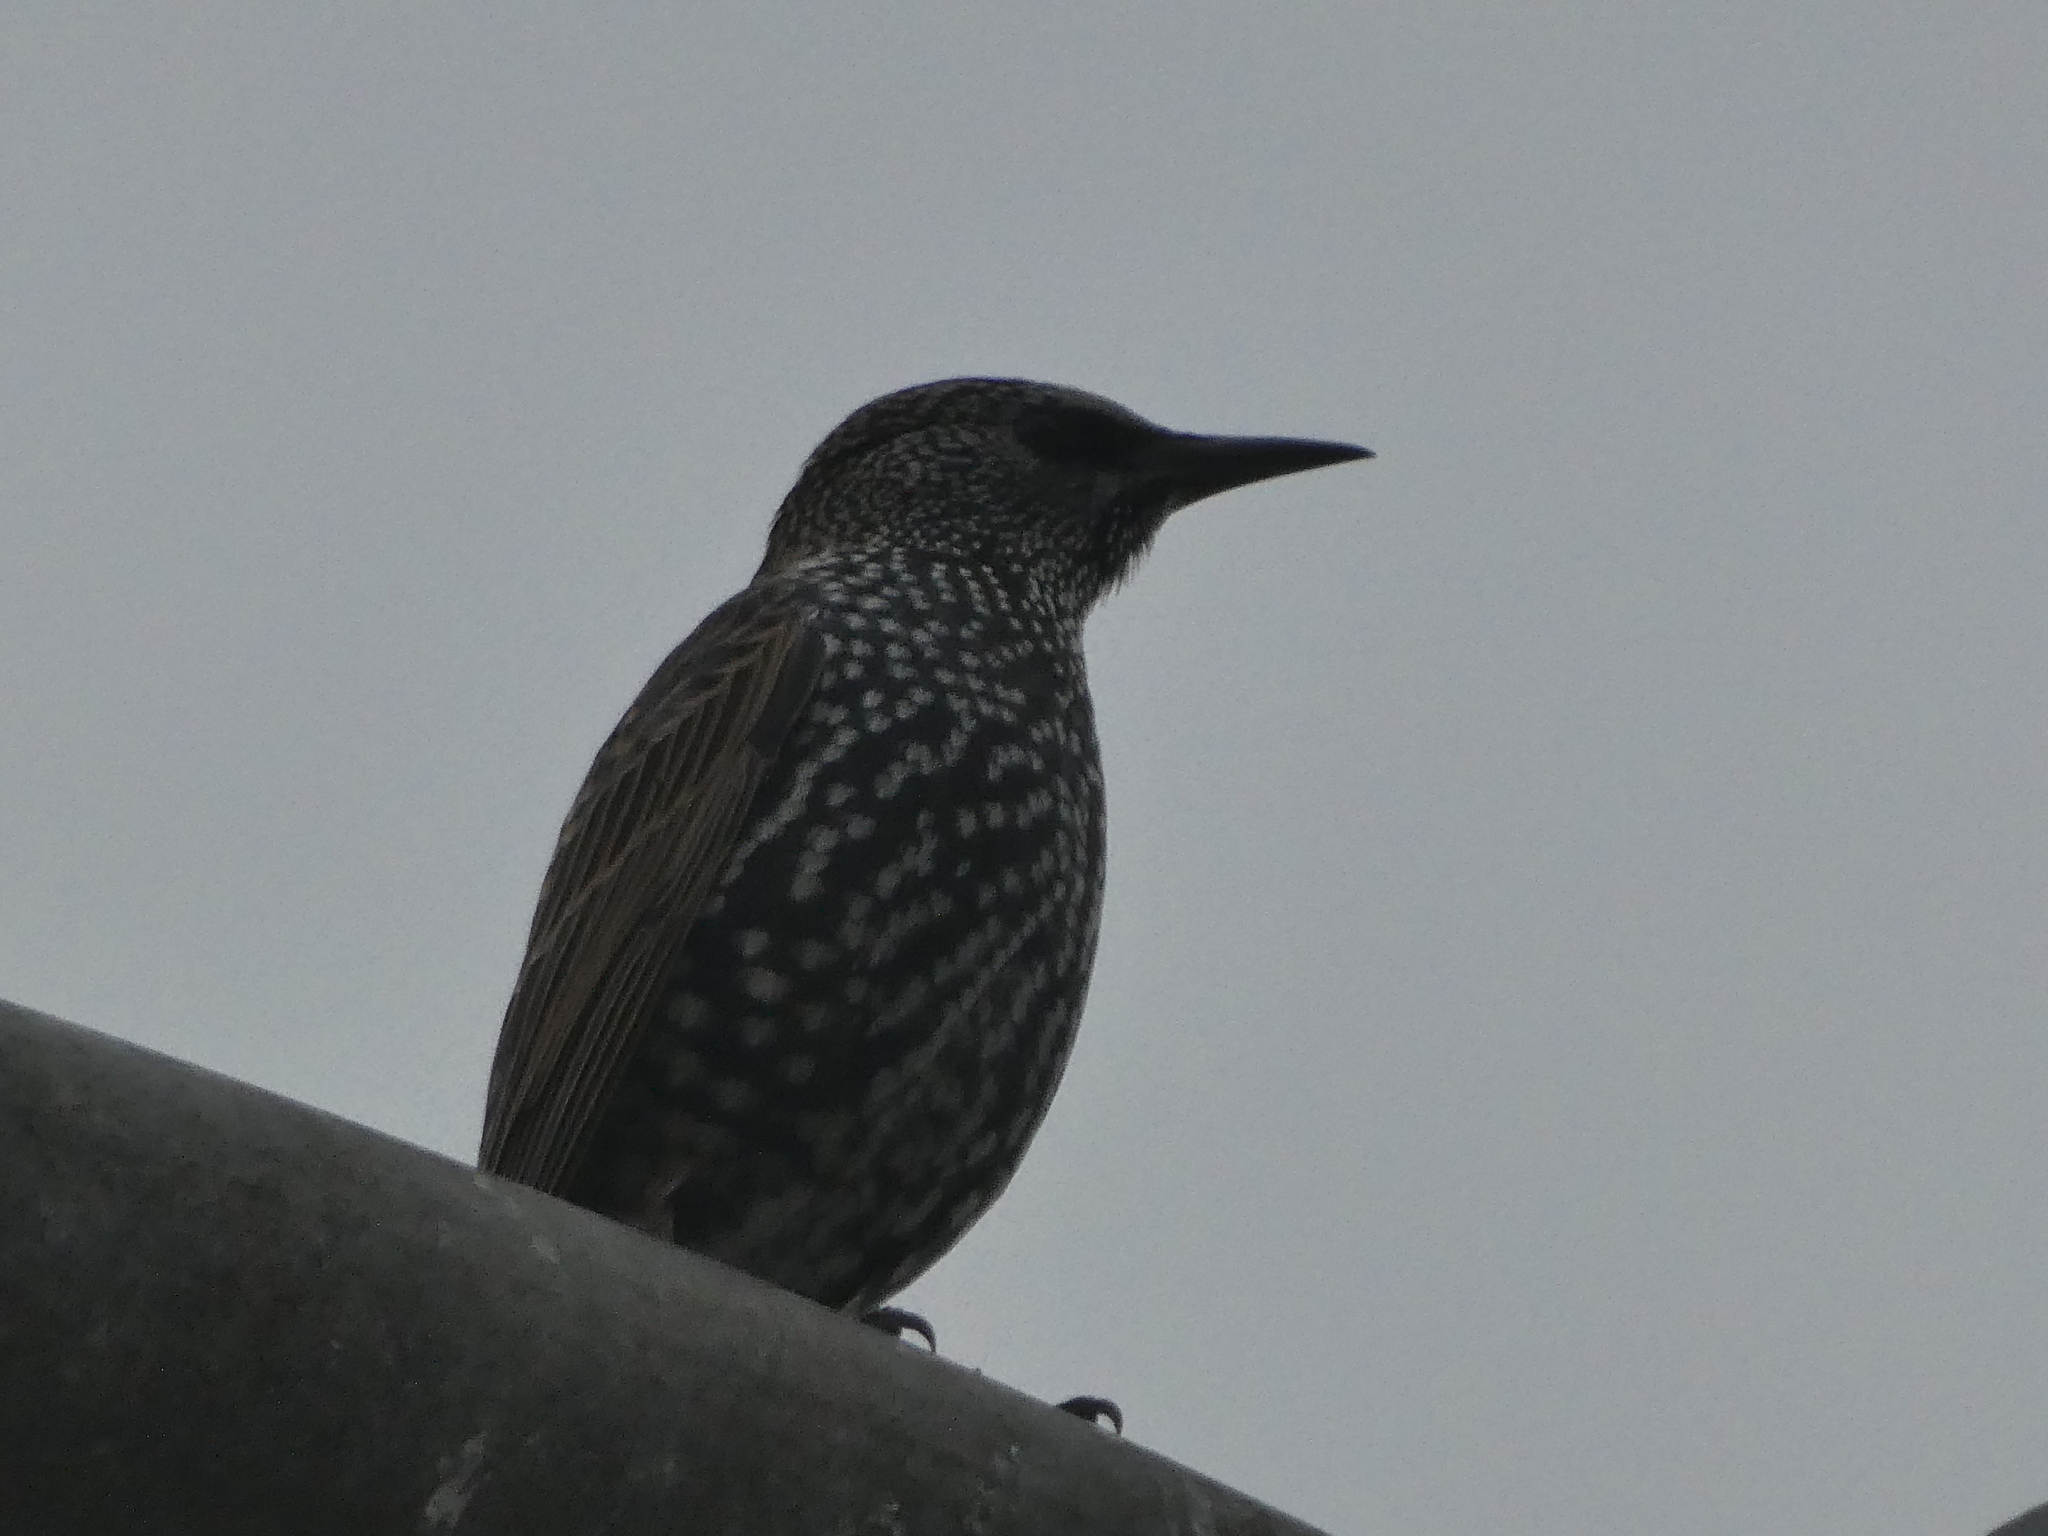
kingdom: Animalia
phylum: Chordata
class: Aves
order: Passeriformes
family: Sturnidae
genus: Sturnus
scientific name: Sturnus vulgaris
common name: Common starling
